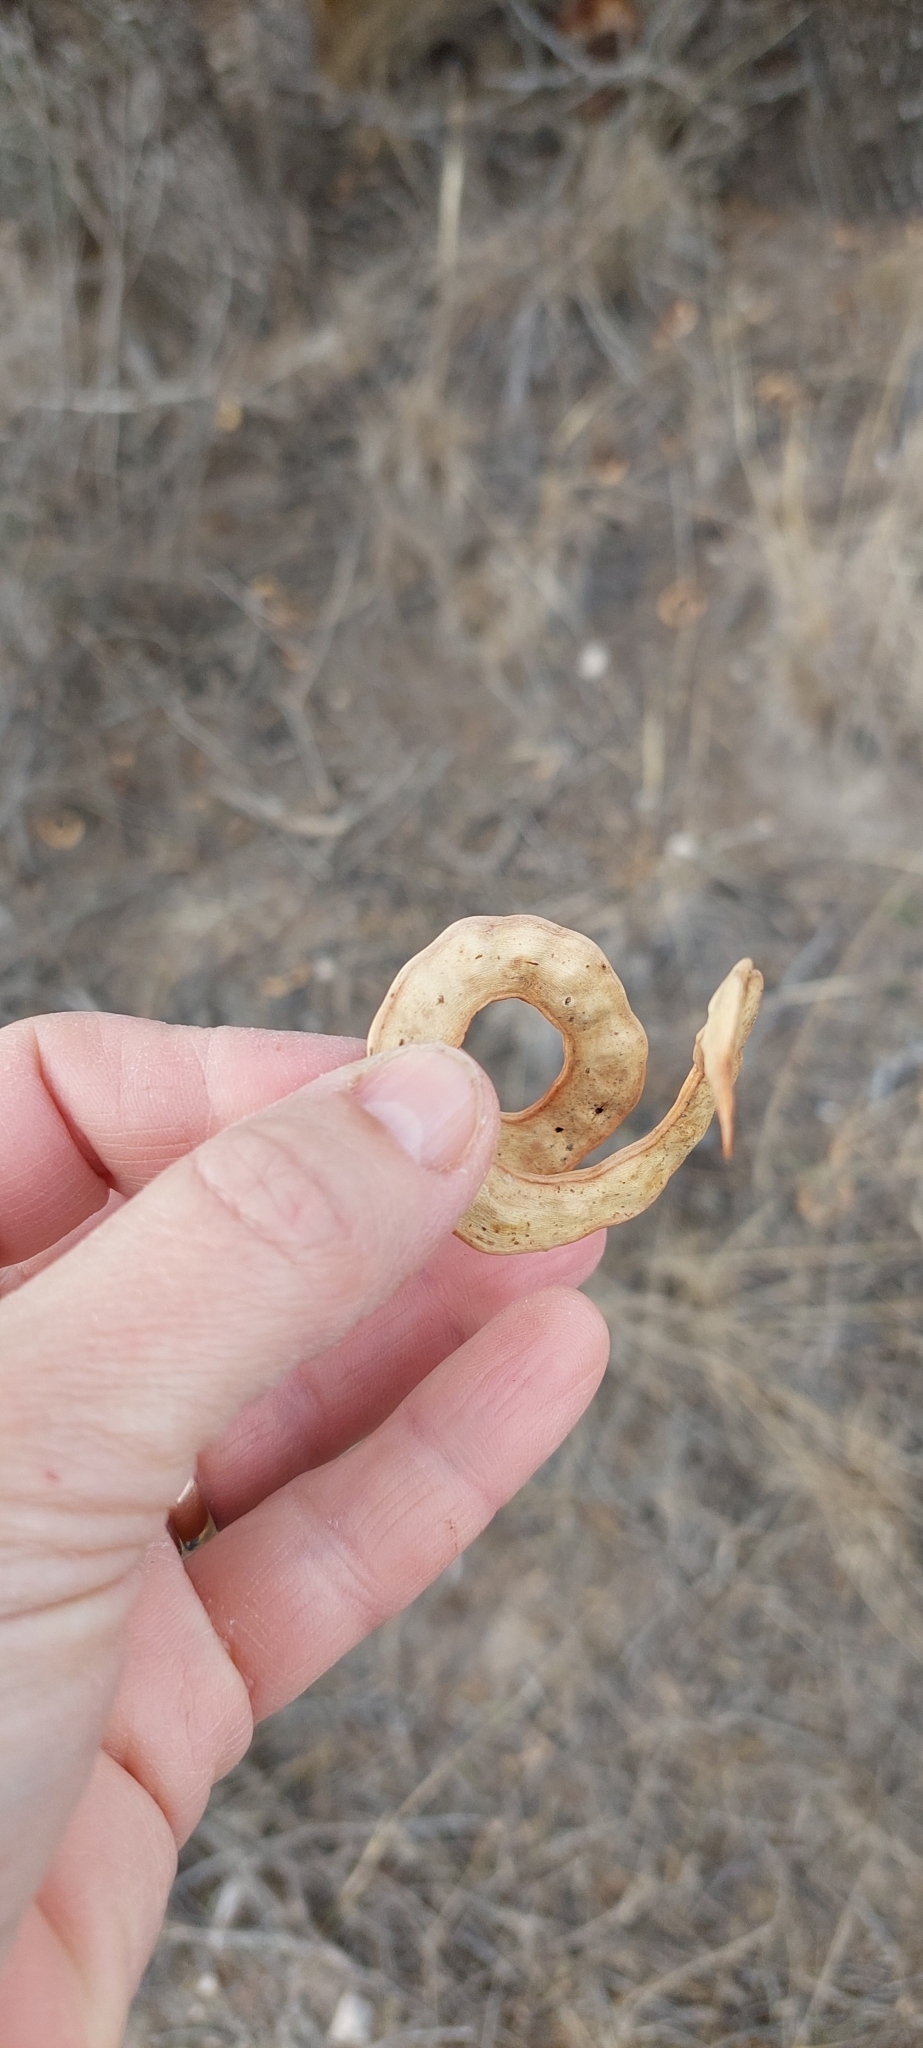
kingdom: Plantae
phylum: Tracheophyta
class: Magnoliopsida
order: Fabales
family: Fabaceae
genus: Prosopis
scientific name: Prosopis caldenia
